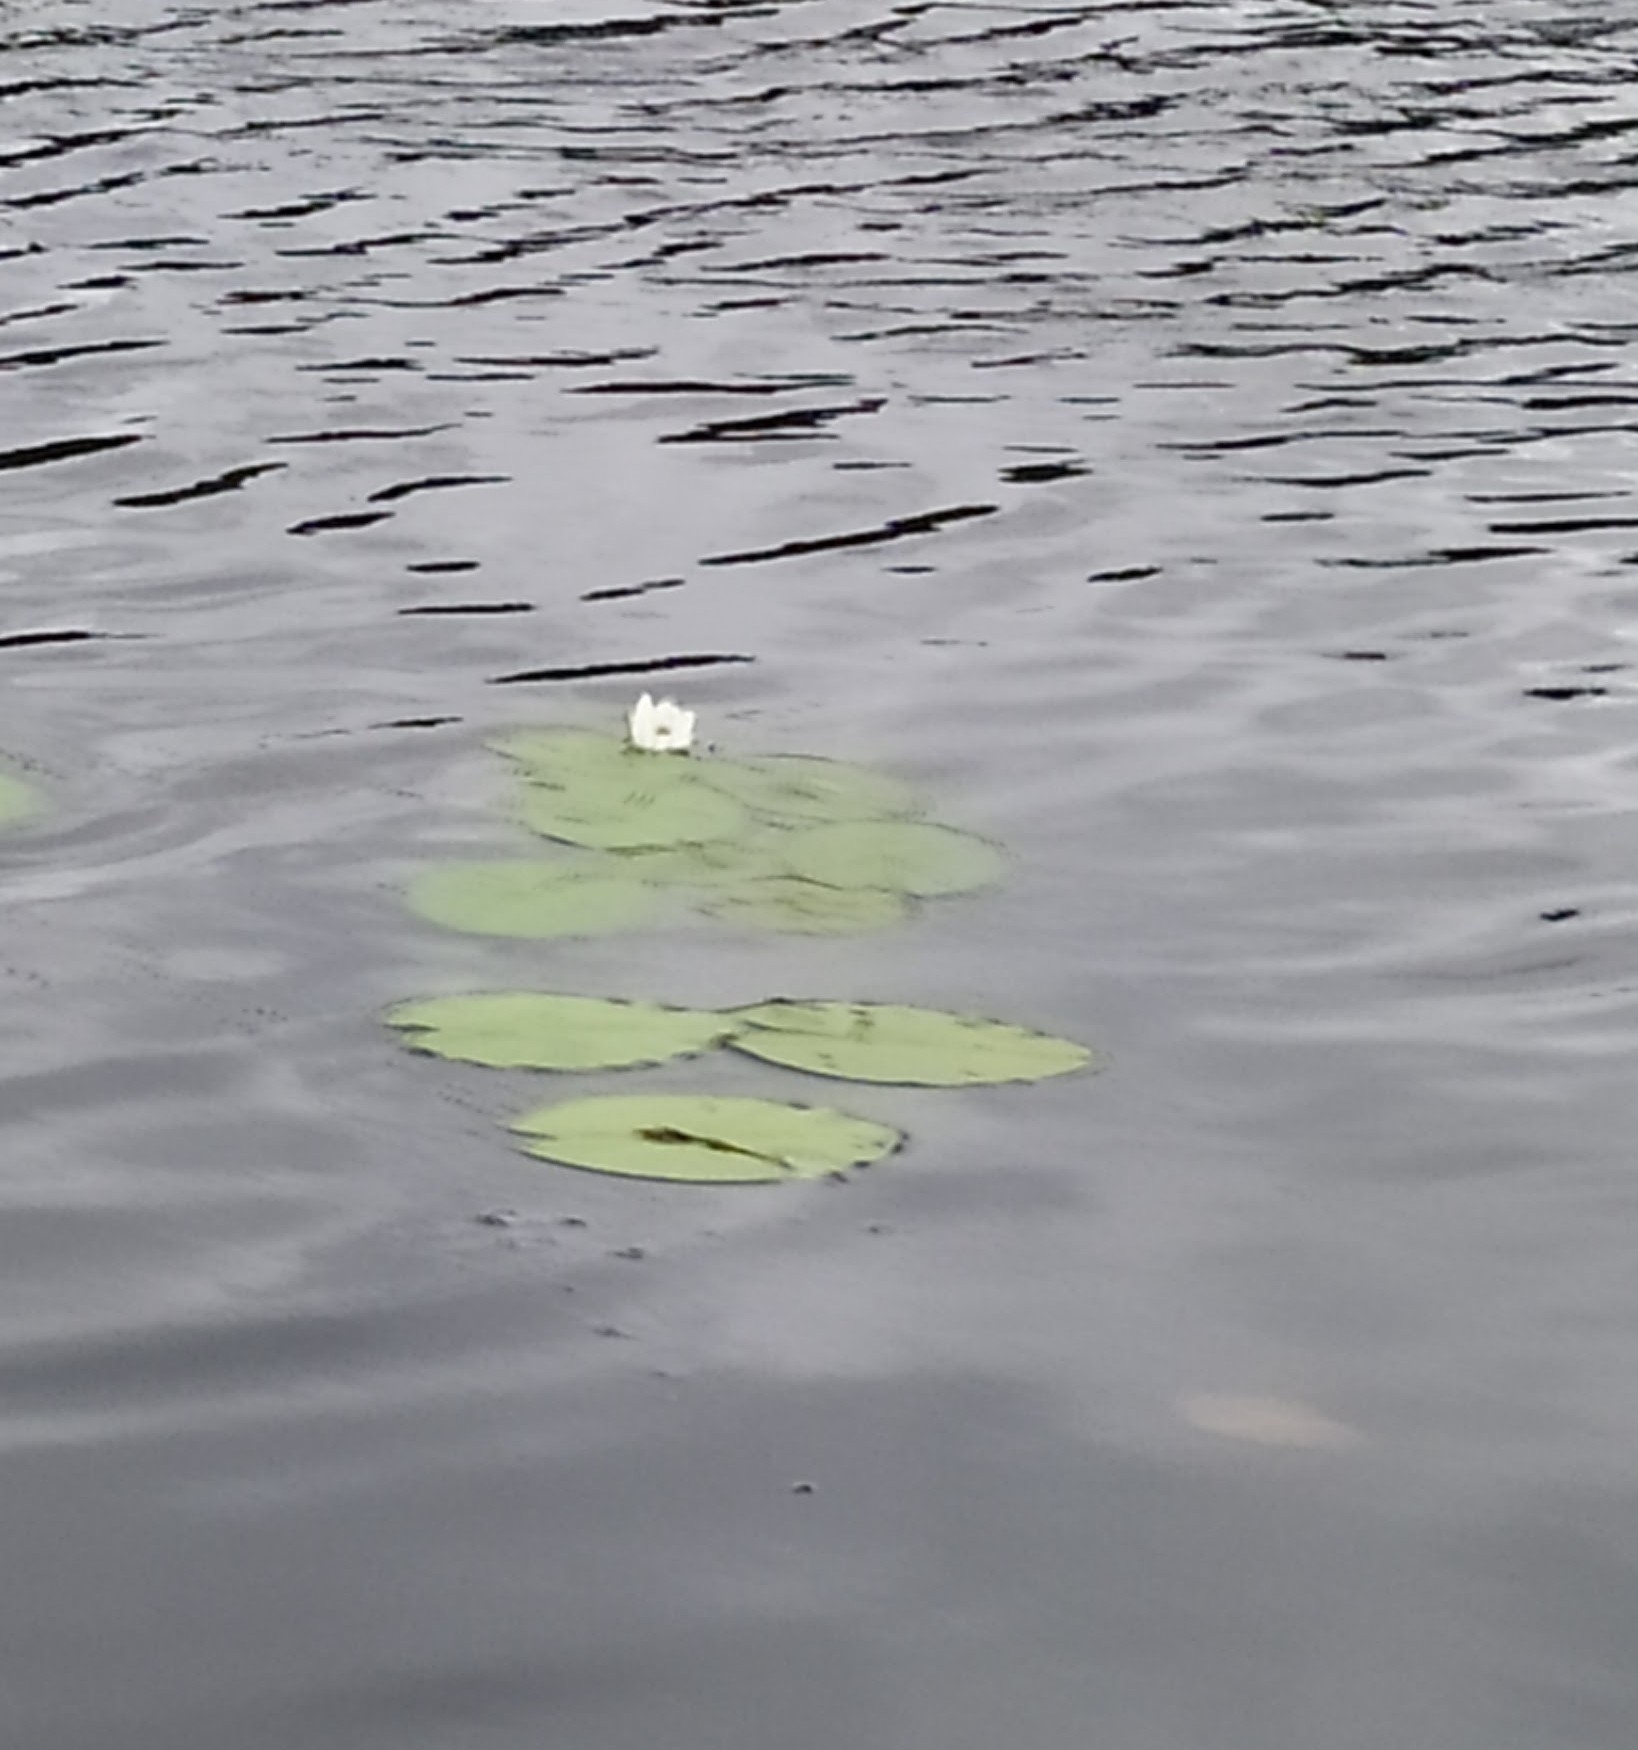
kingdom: Plantae
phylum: Tracheophyta
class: Magnoliopsida
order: Nymphaeales
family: Nymphaeaceae
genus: Nymphaea
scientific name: Nymphaea candida
